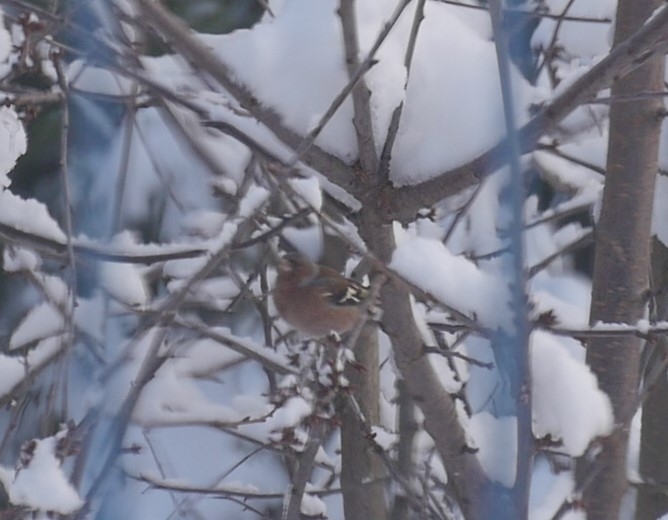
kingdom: Animalia
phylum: Chordata
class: Aves
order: Passeriformes
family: Fringillidae
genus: Fringilla
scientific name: Fringilla coelebs
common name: Common chaffinch
